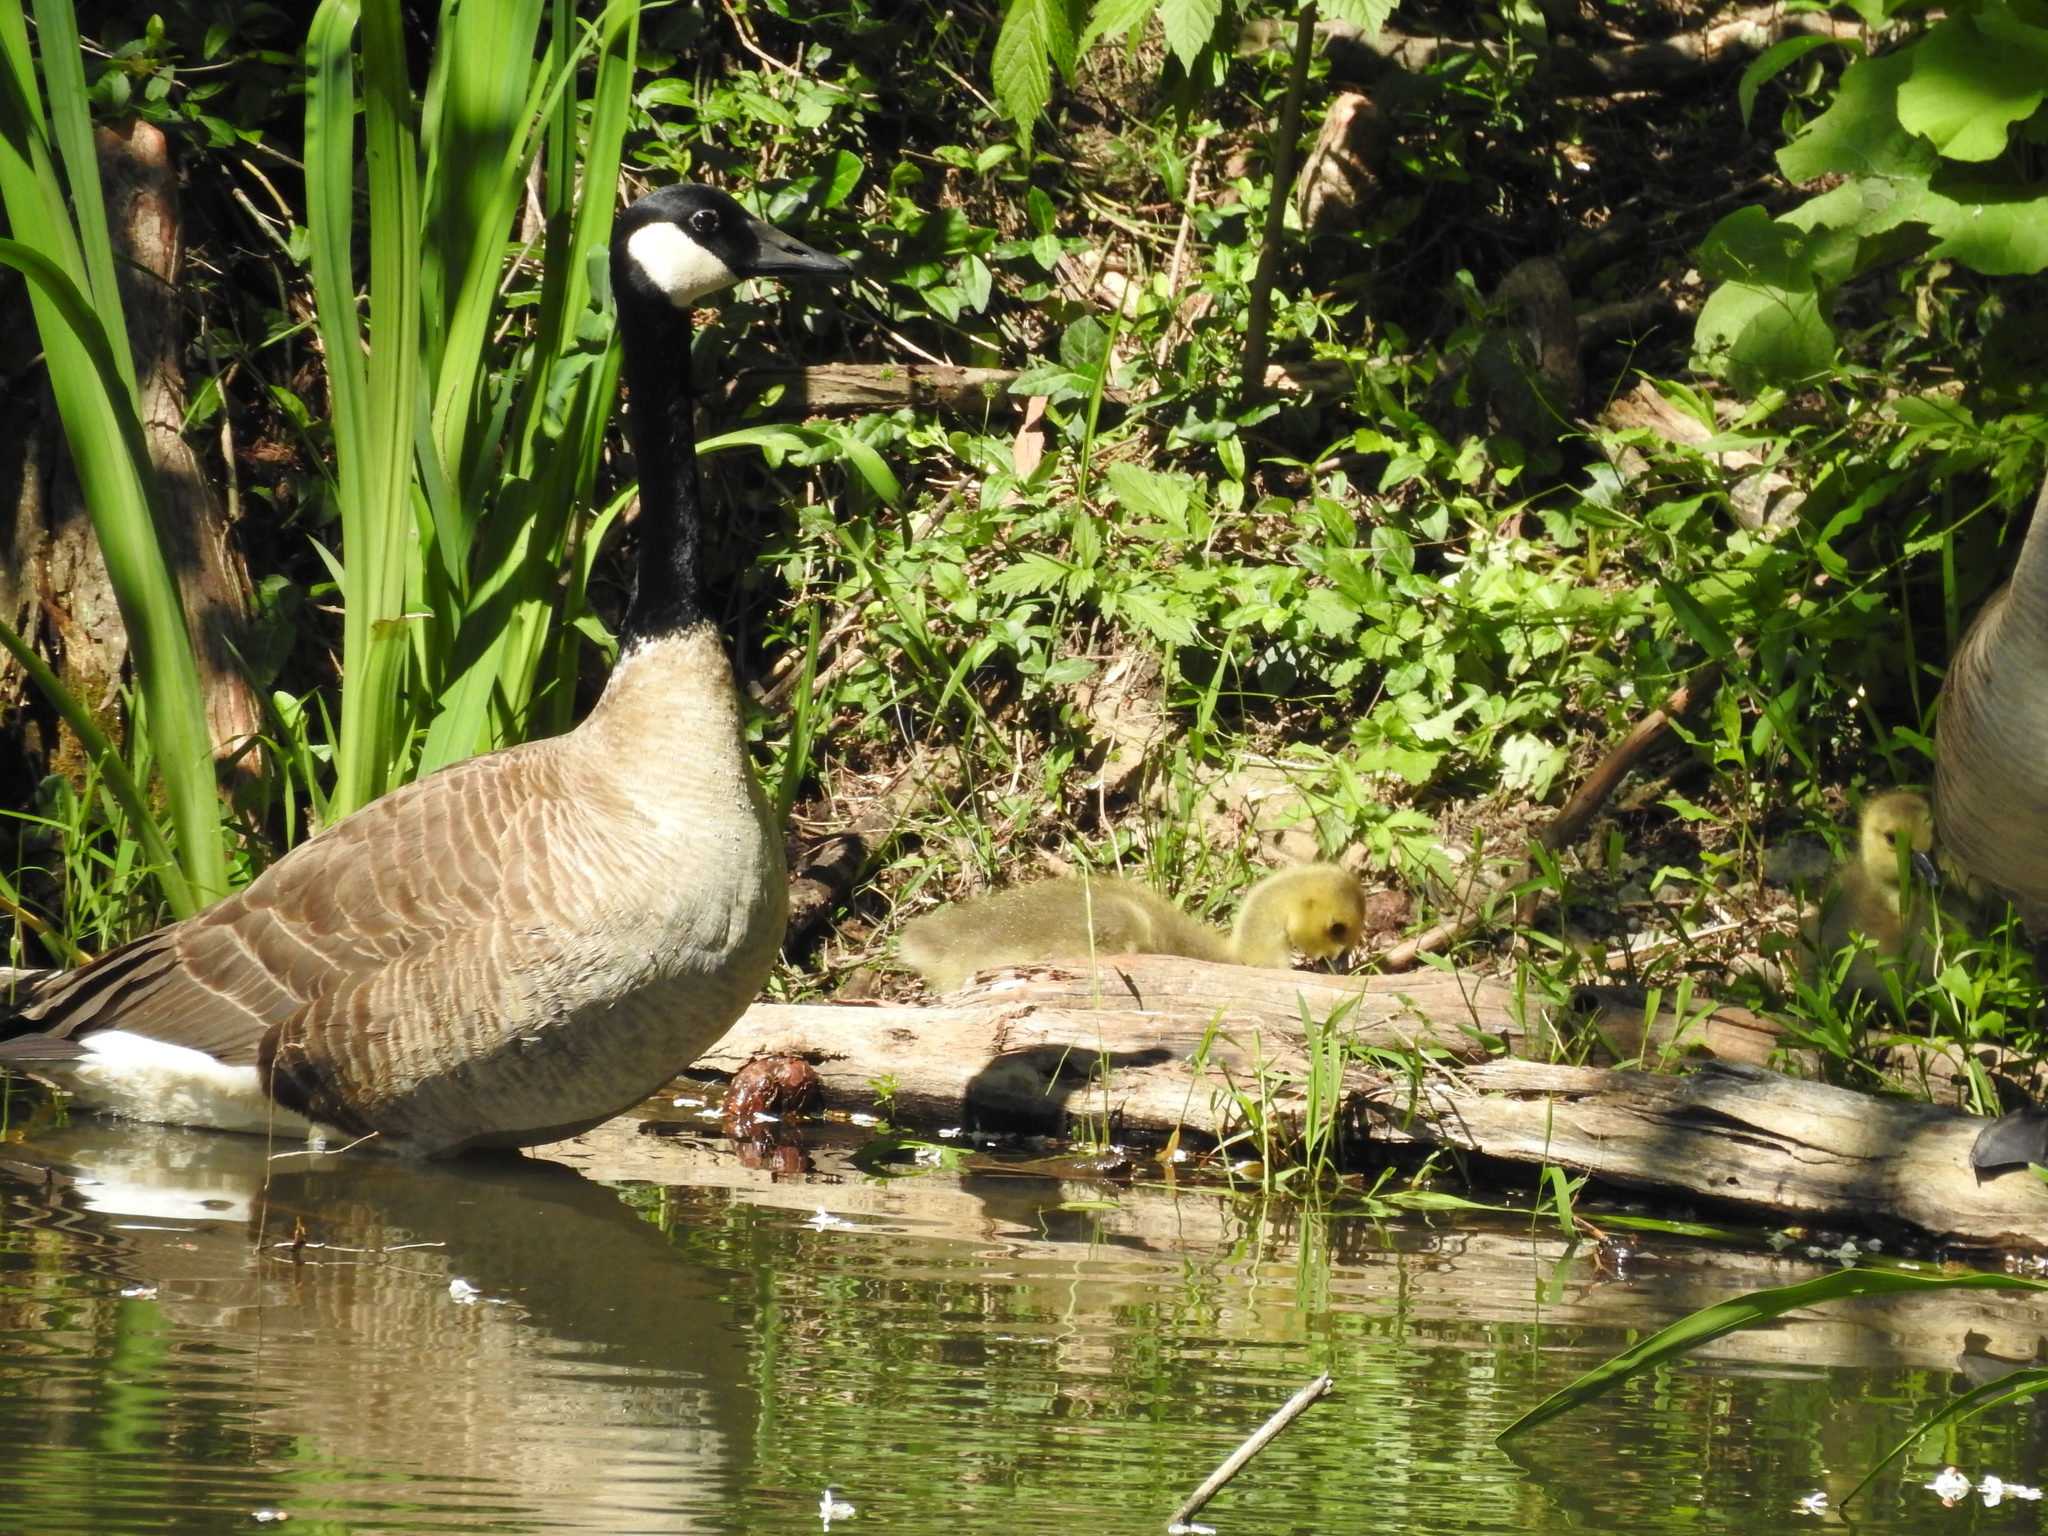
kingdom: Animalia
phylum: Chordata
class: Aves
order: Anseriformes
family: Anatidae
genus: Branta
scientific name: Branta canadensis
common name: Canada goose
